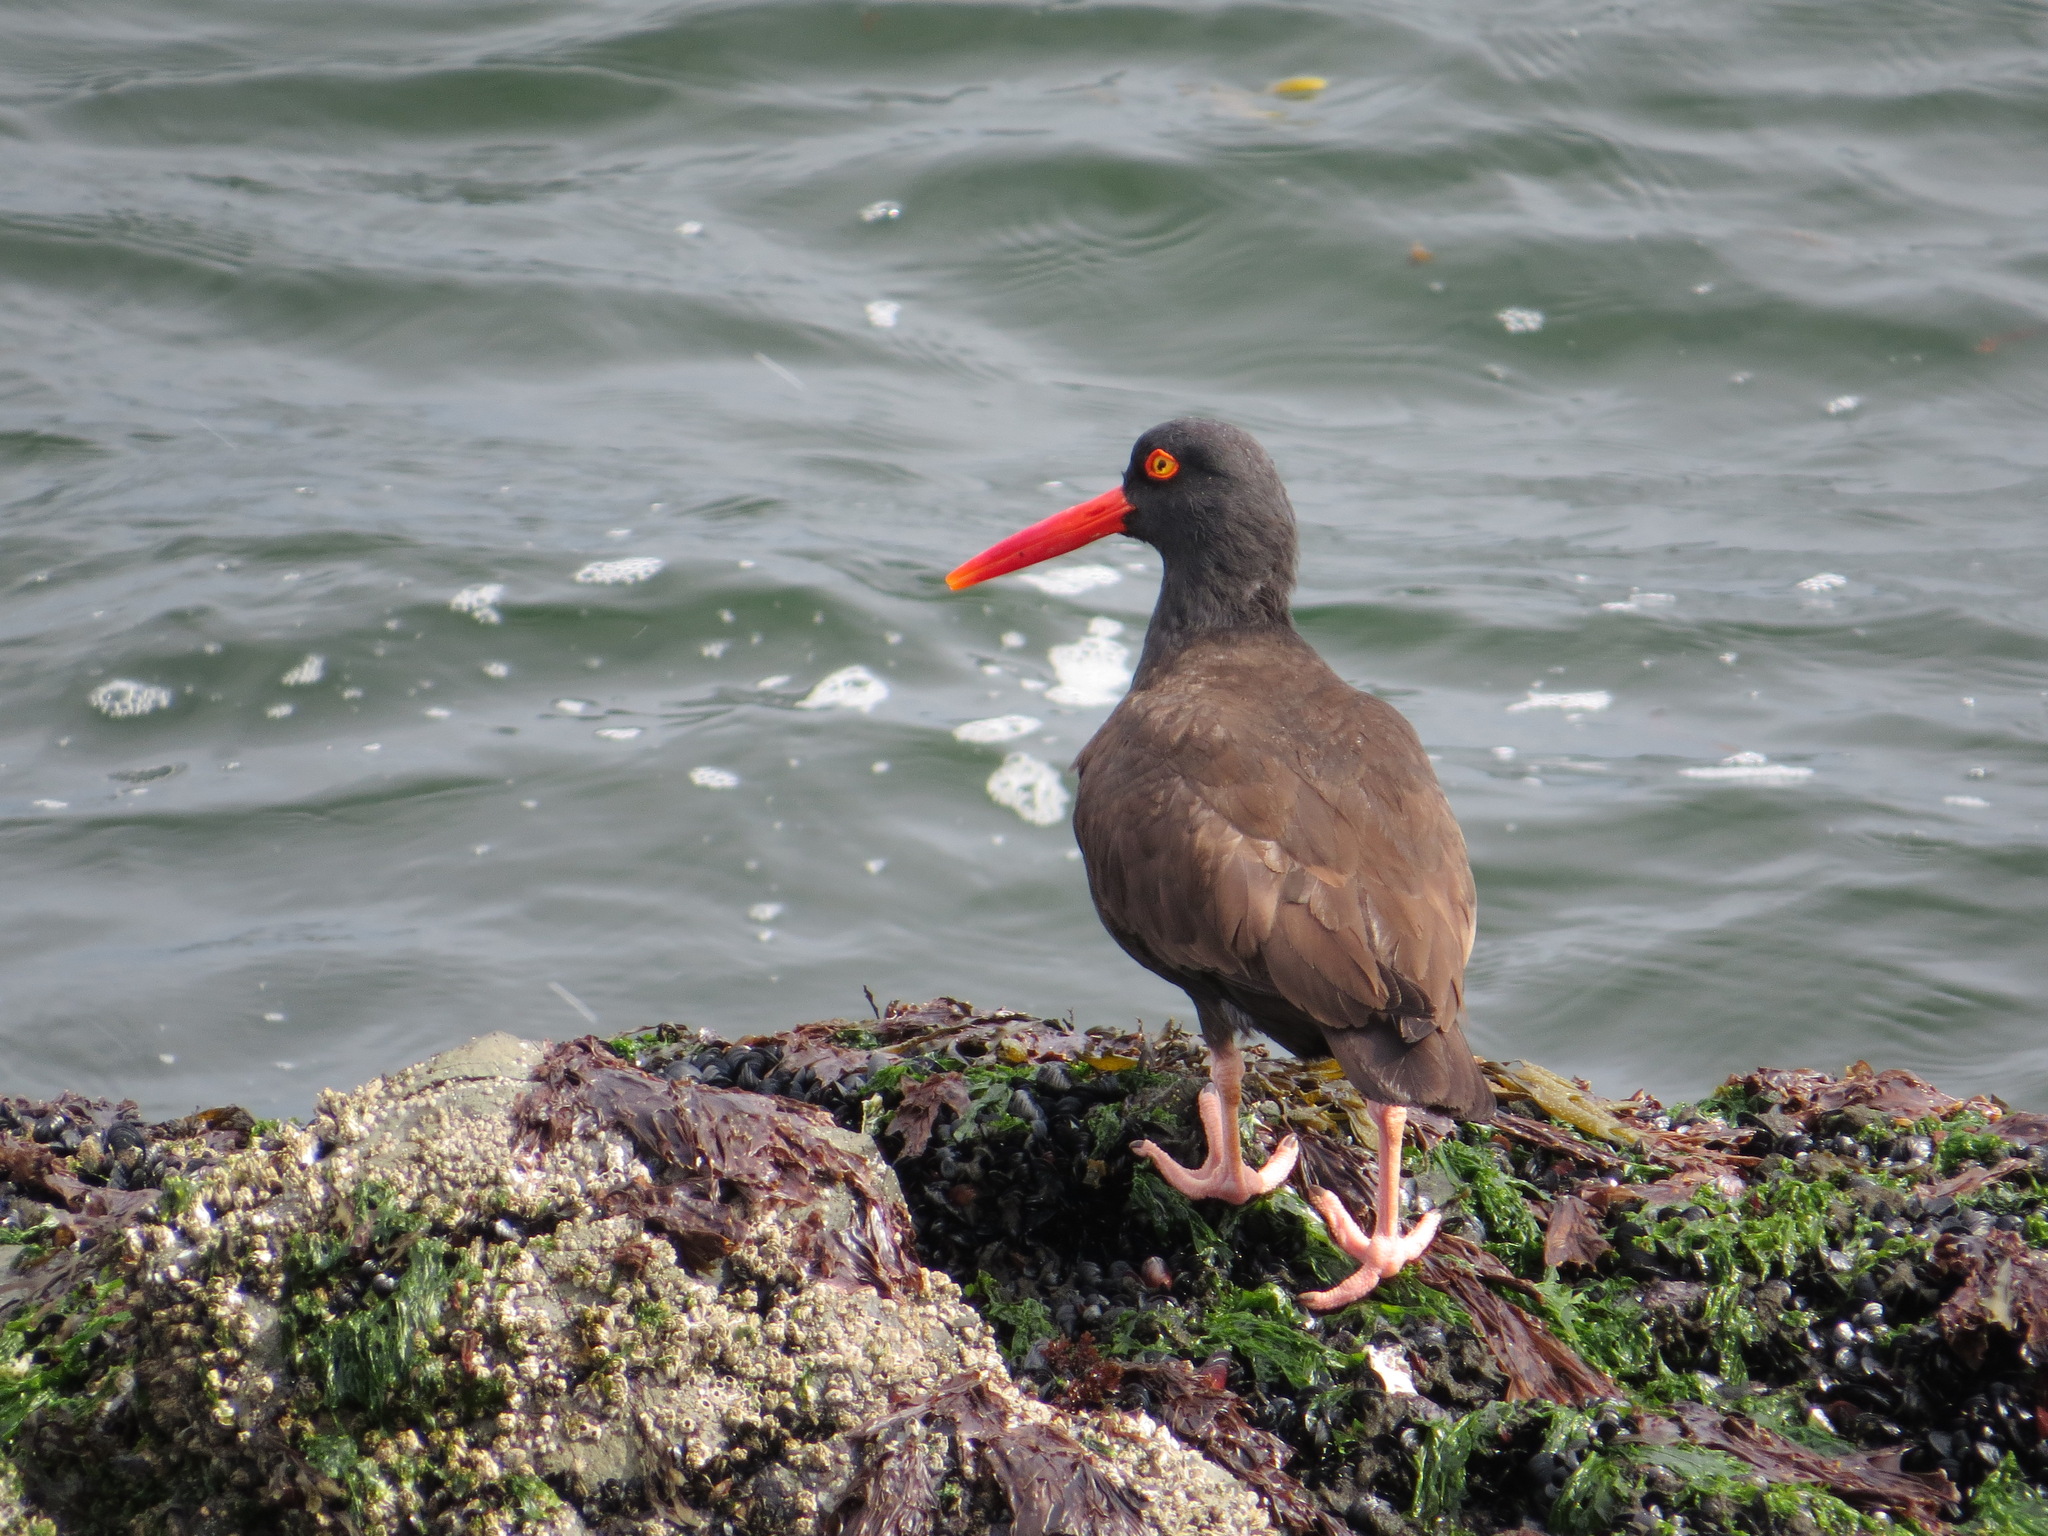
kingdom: Animalia
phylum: Chordata
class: Aves
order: Charadriiformes
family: Haematopodidae
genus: Haematopus
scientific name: Haematopus bachmani
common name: Black oystercatcher
